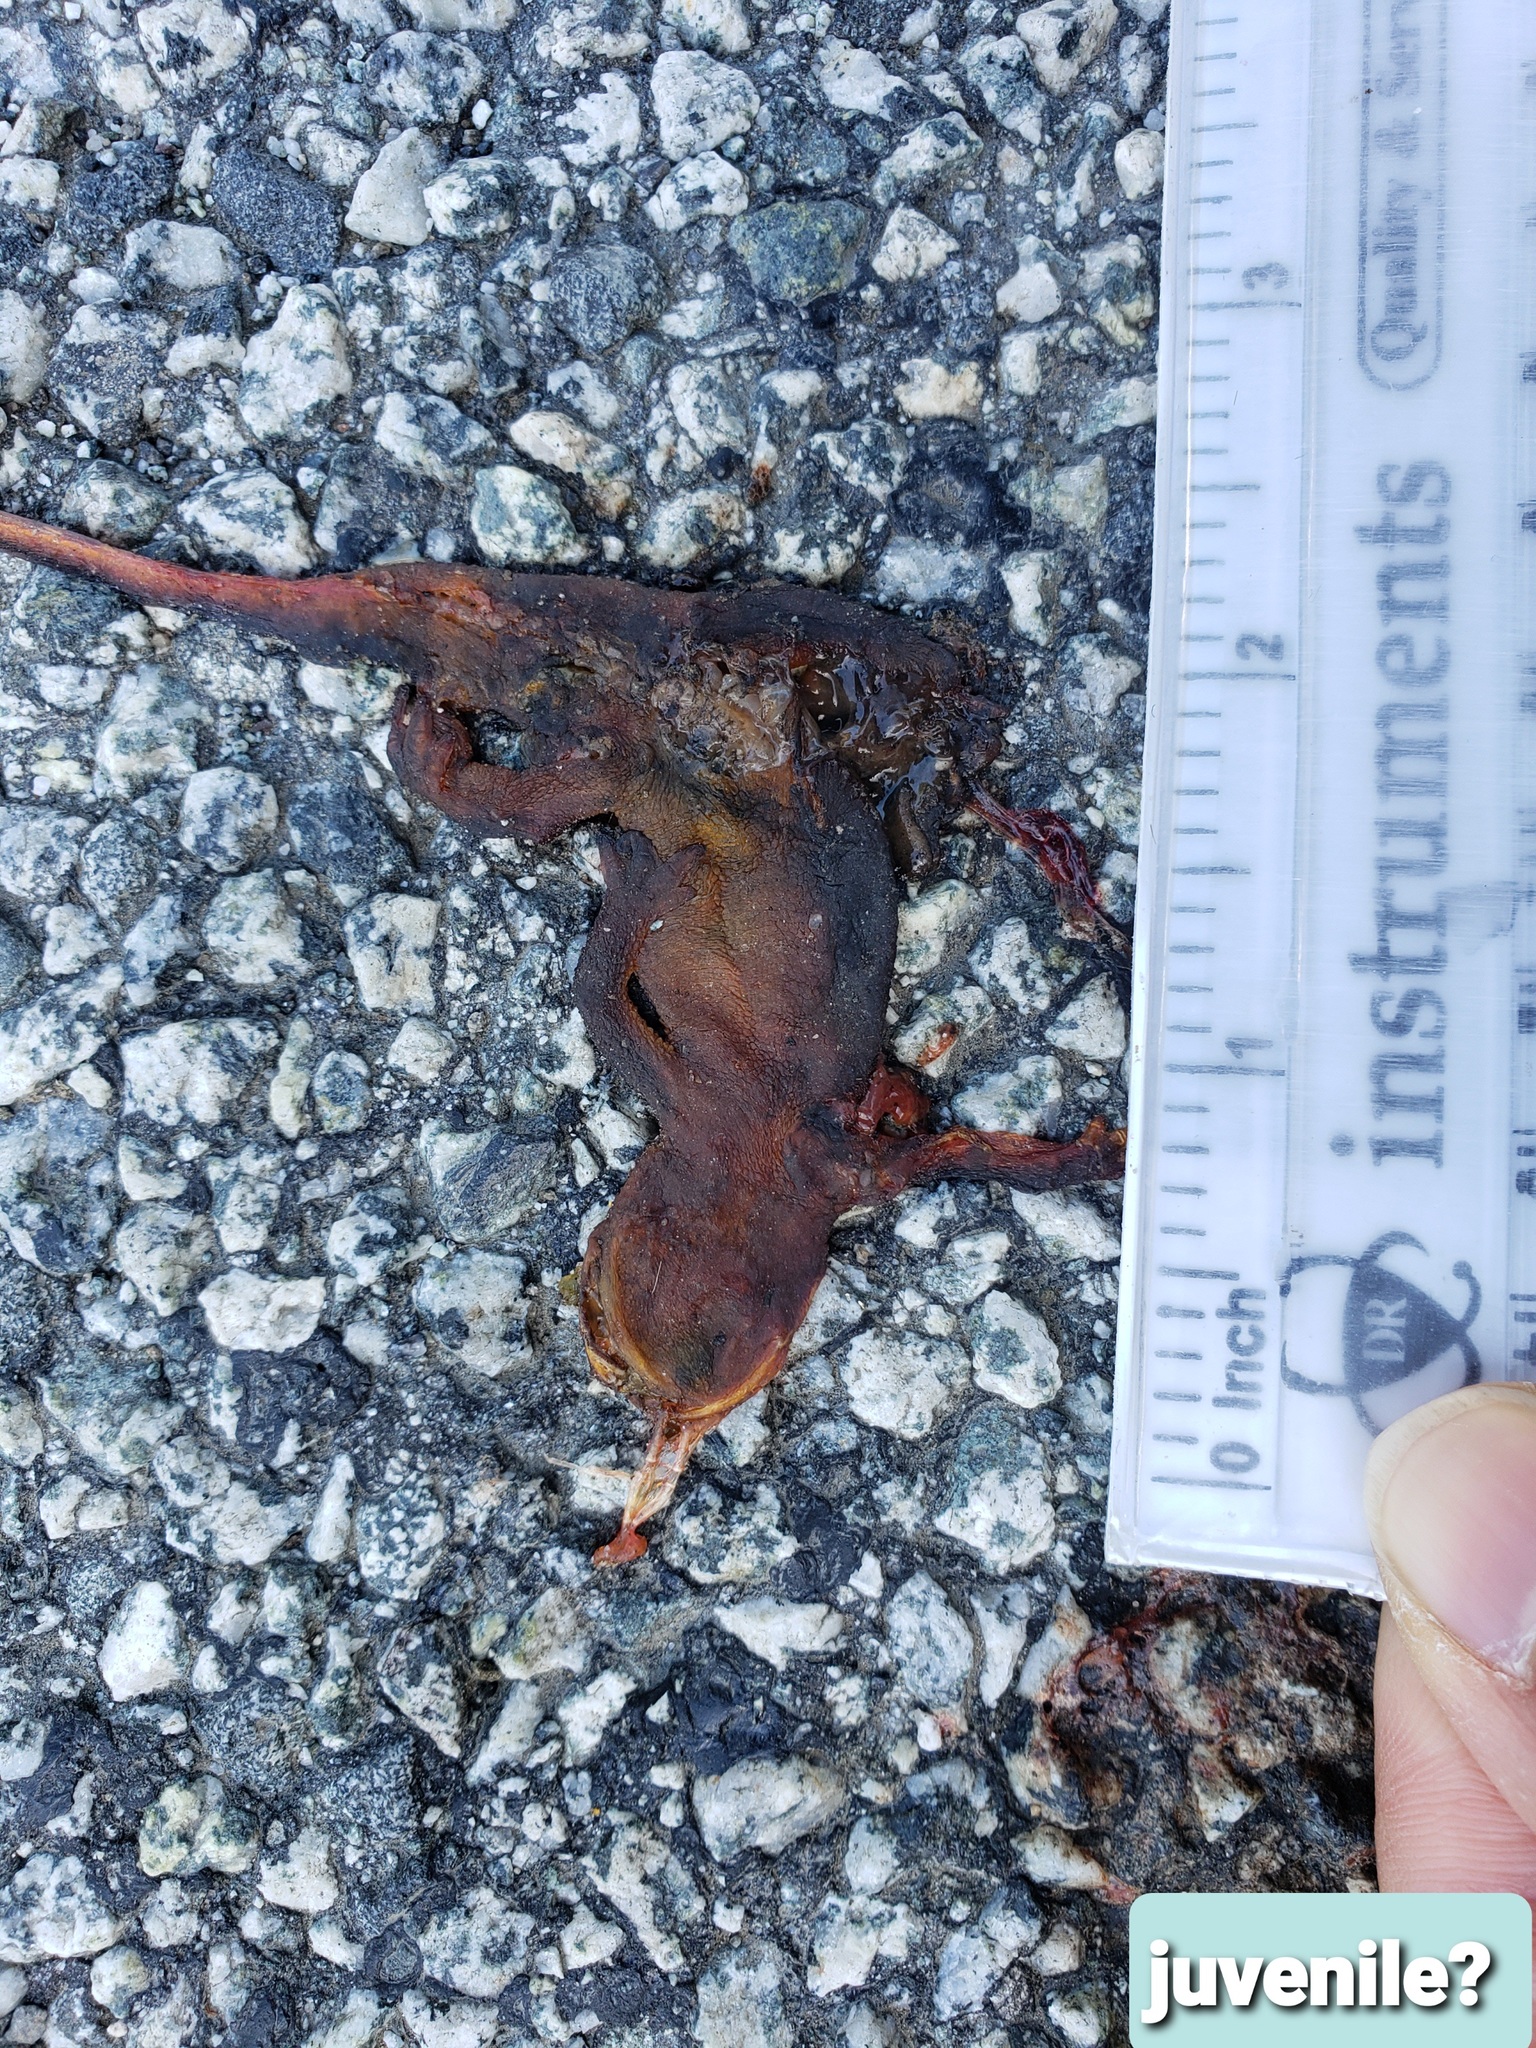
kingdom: Animalia
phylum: Chordata
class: Amphibia
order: Caudata
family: Salamandridae
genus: Taricha
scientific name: Taricha
